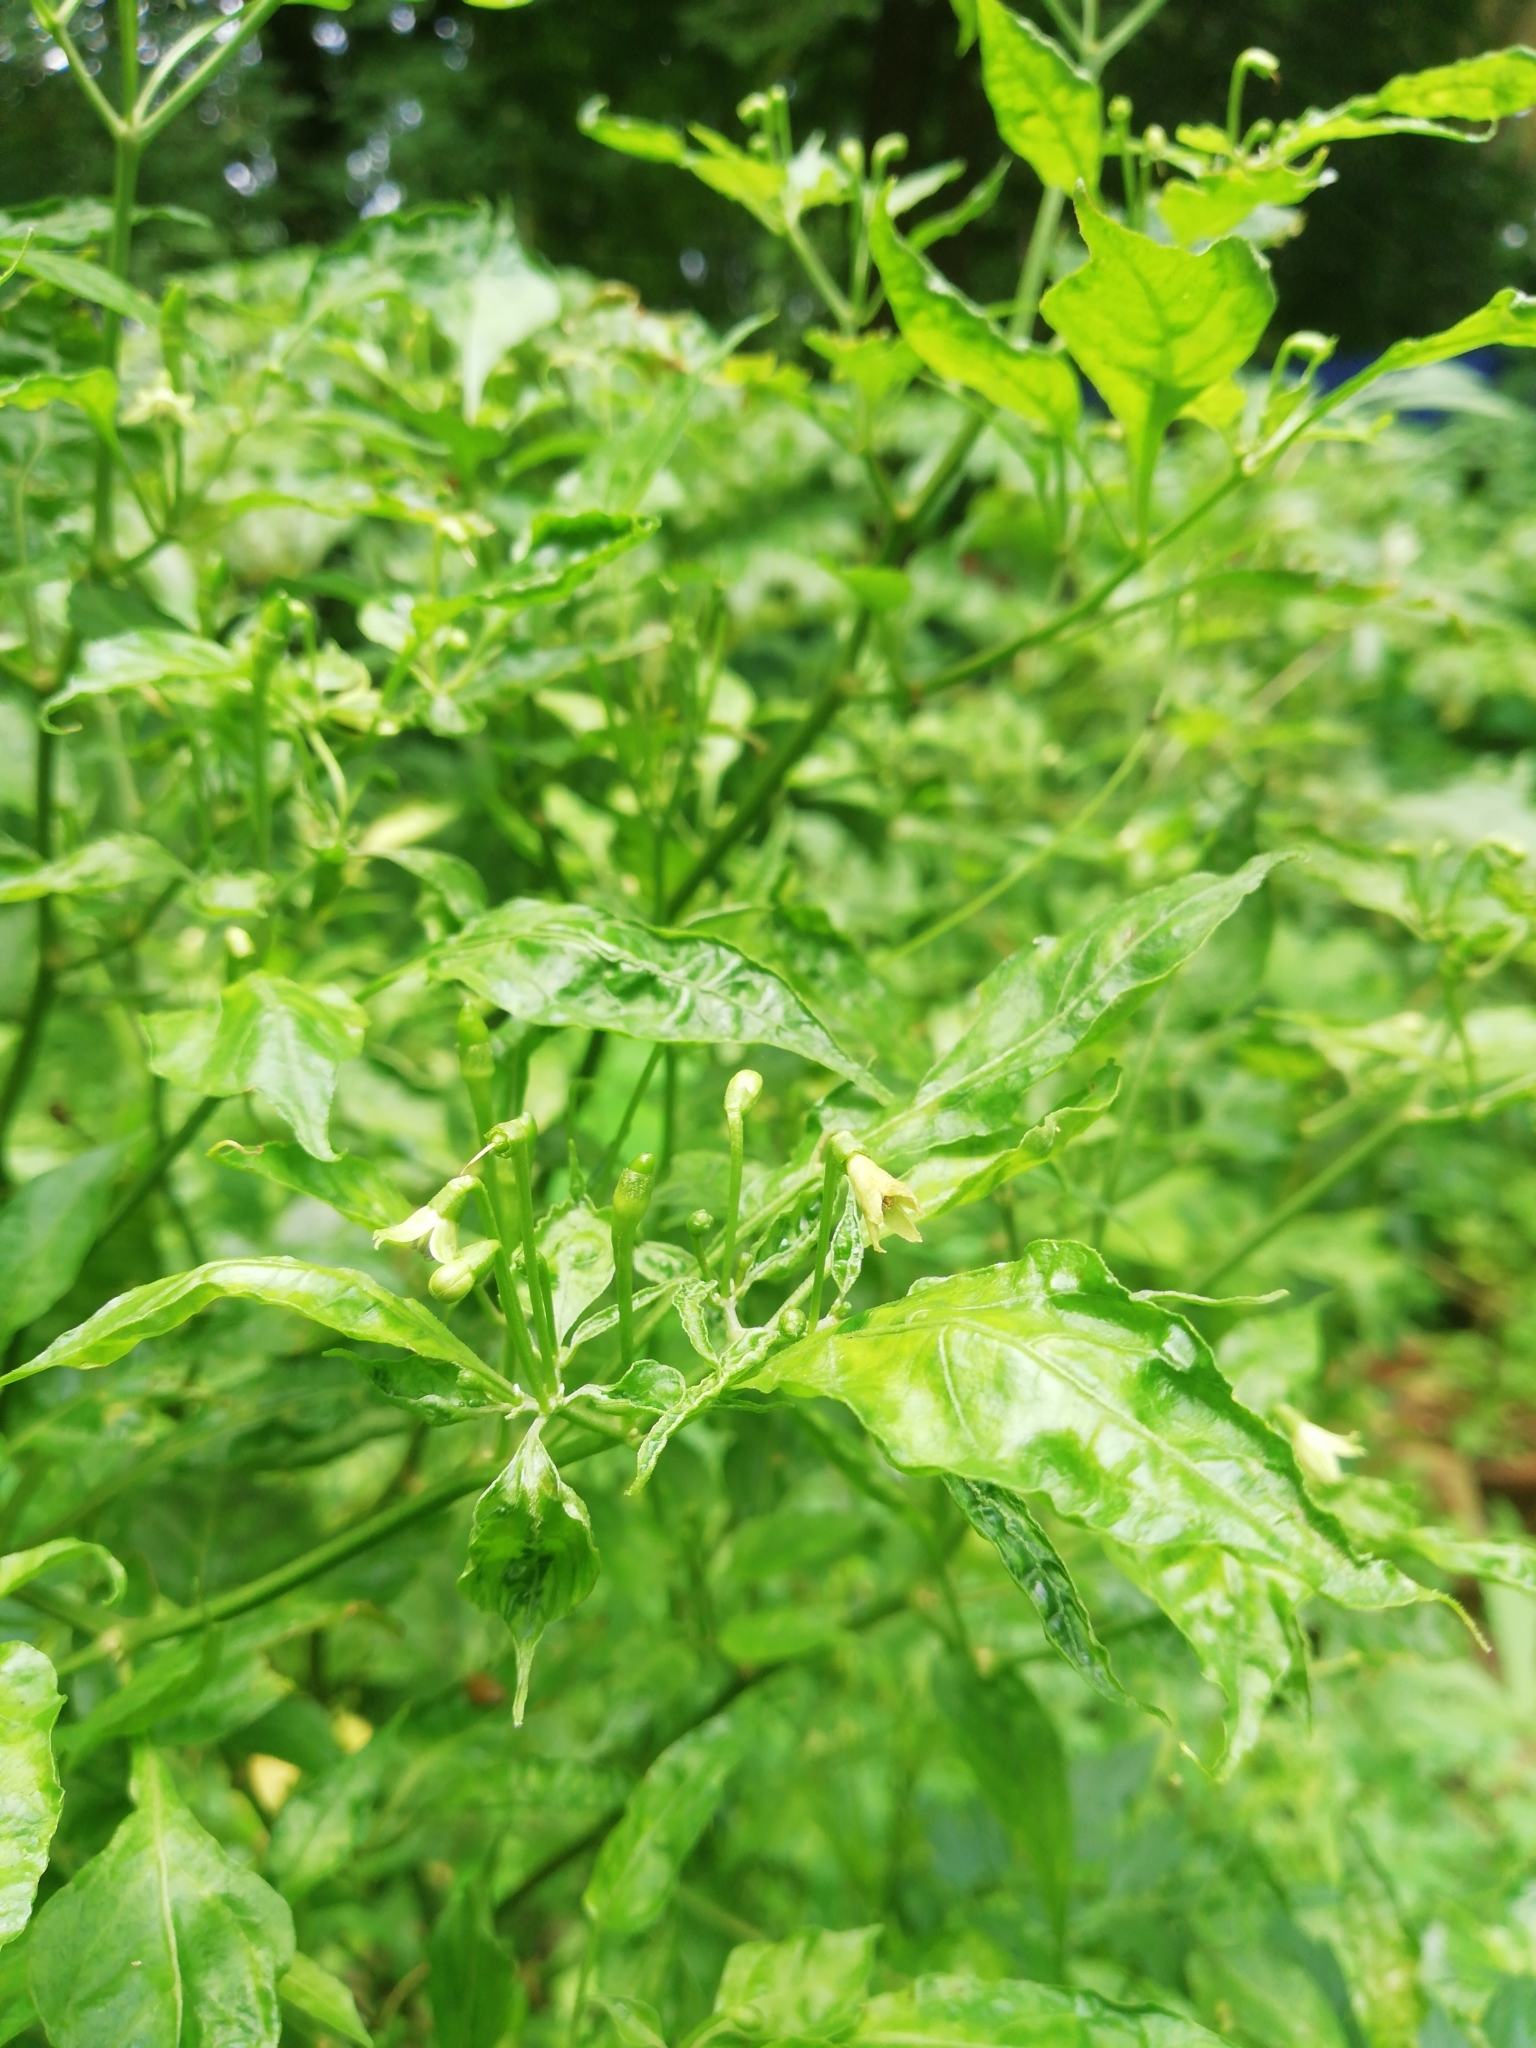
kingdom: Plantae
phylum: Tracheophyta
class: Magnoliopsida
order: Solanales
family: Solanaceae
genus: Capsicum
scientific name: Capsicum annuum
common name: Sweet pepper
